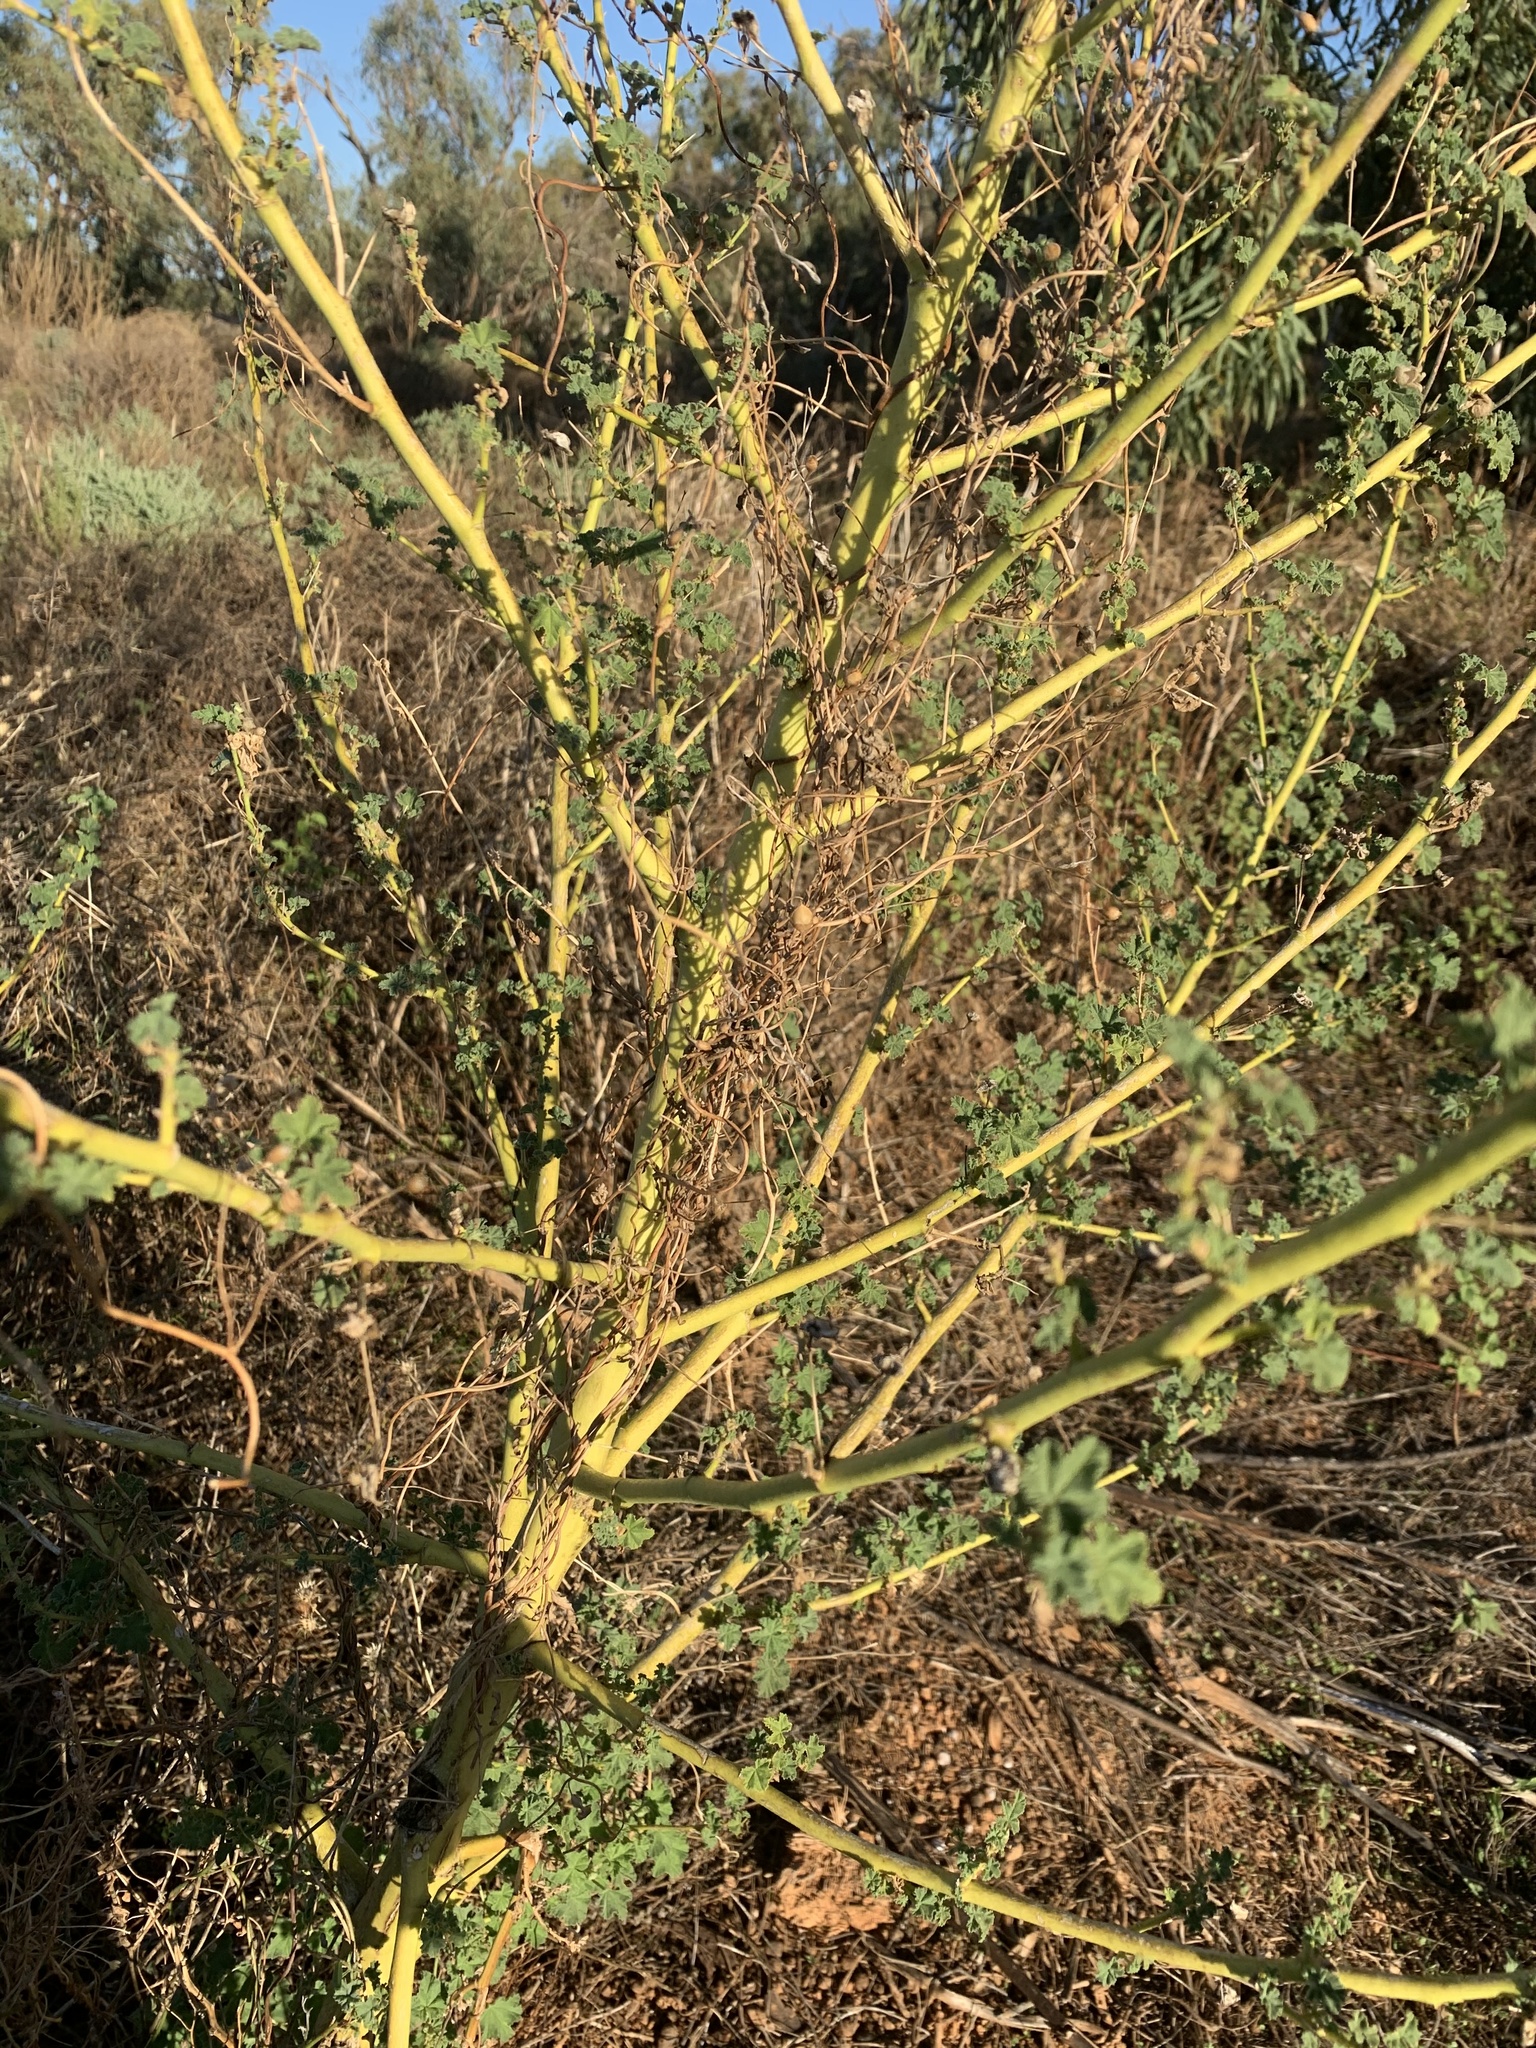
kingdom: Plantae
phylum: Tracheophyta
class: Magnoliopsida
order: Malvales
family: Malvaceae
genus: Malva
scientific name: Malva weinmanniana
